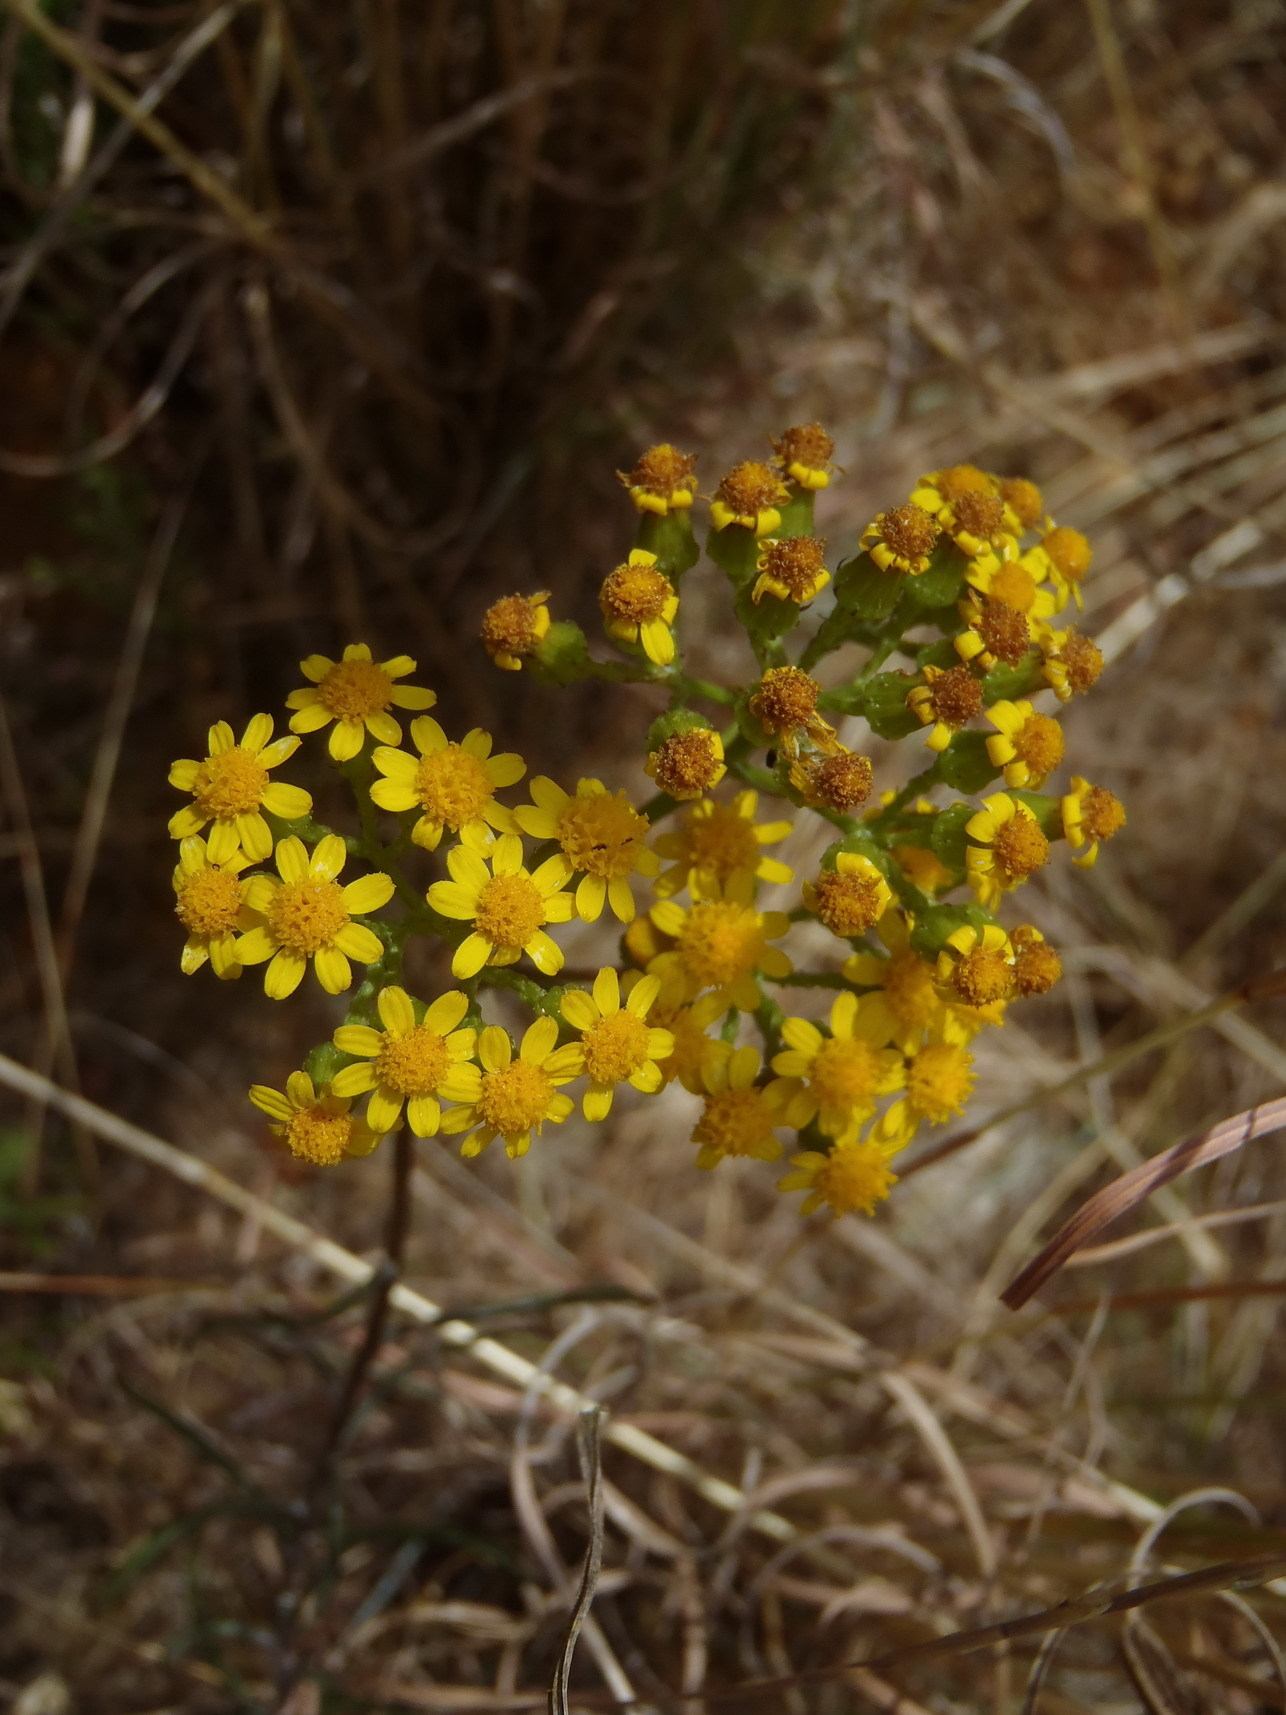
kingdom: Plantae
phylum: Tracheophyta
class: Magnoliopsida
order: Asterales
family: Asteraceae
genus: Senecio
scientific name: Senecio burchellii
